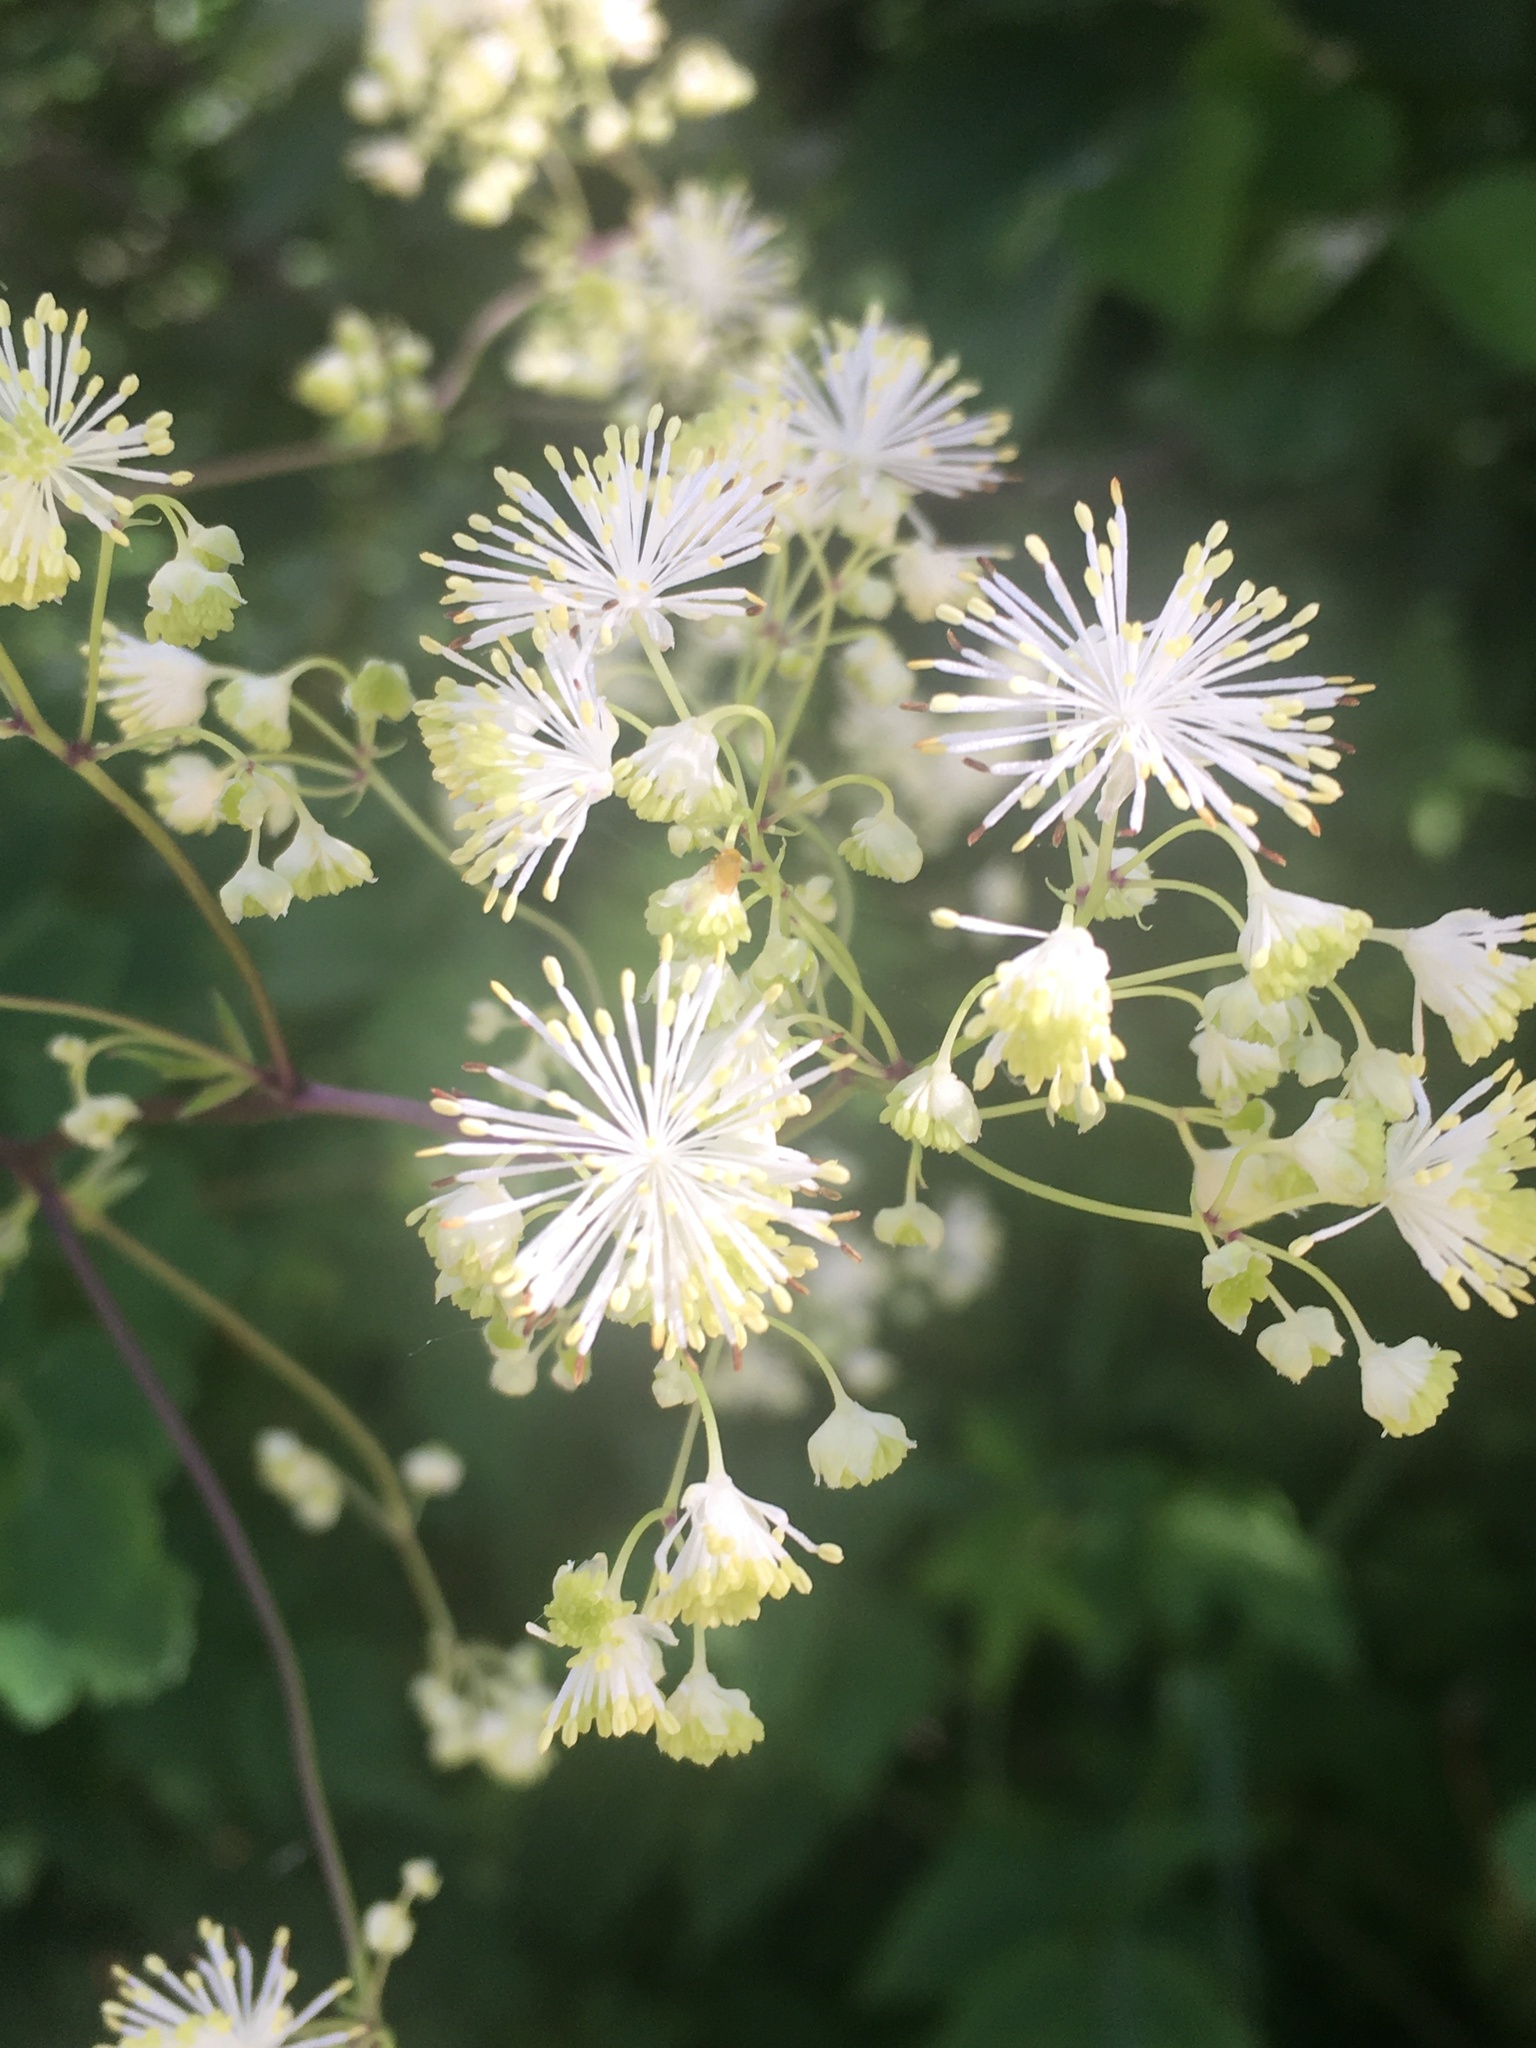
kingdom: Plantae
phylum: Tracheophyta
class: Magnoliopsida
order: Ranunculales
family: Ranunculaceae
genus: Thalictrum
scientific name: Thalictrum pubescens
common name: King-of-the-meadow
